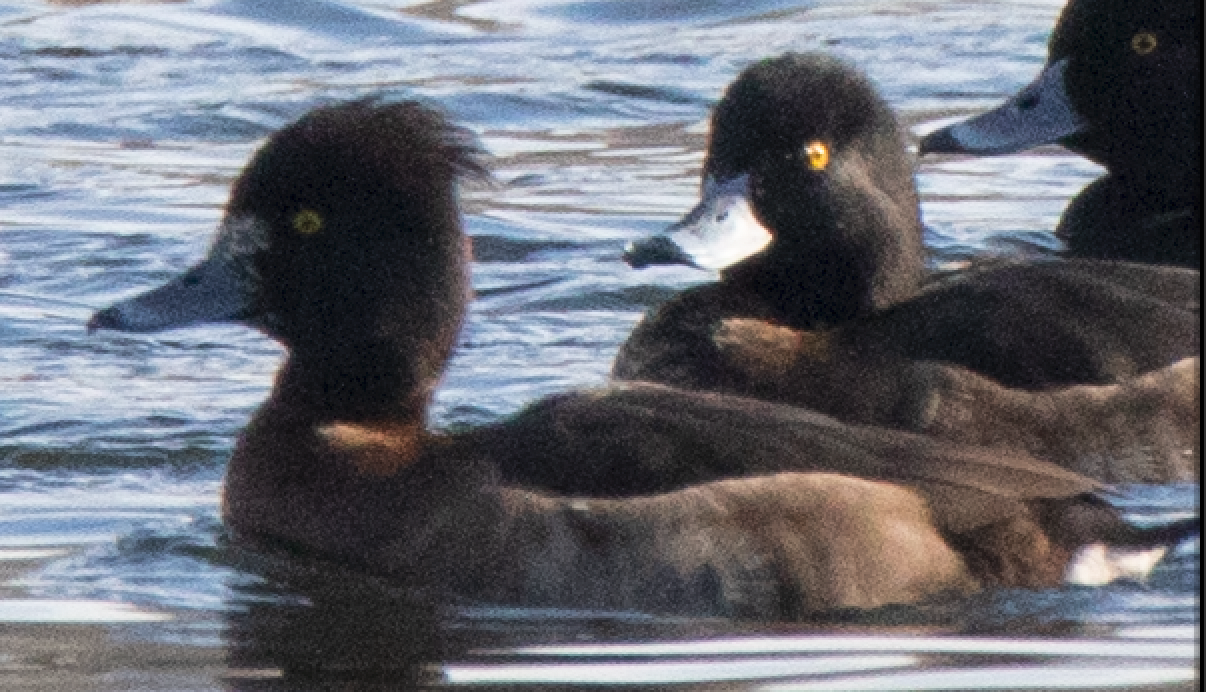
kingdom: Animalia
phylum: Chordata
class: Aves
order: Anseriformes
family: Anatidae
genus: Aythya
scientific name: Aythya fuligula
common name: Tufted duck
